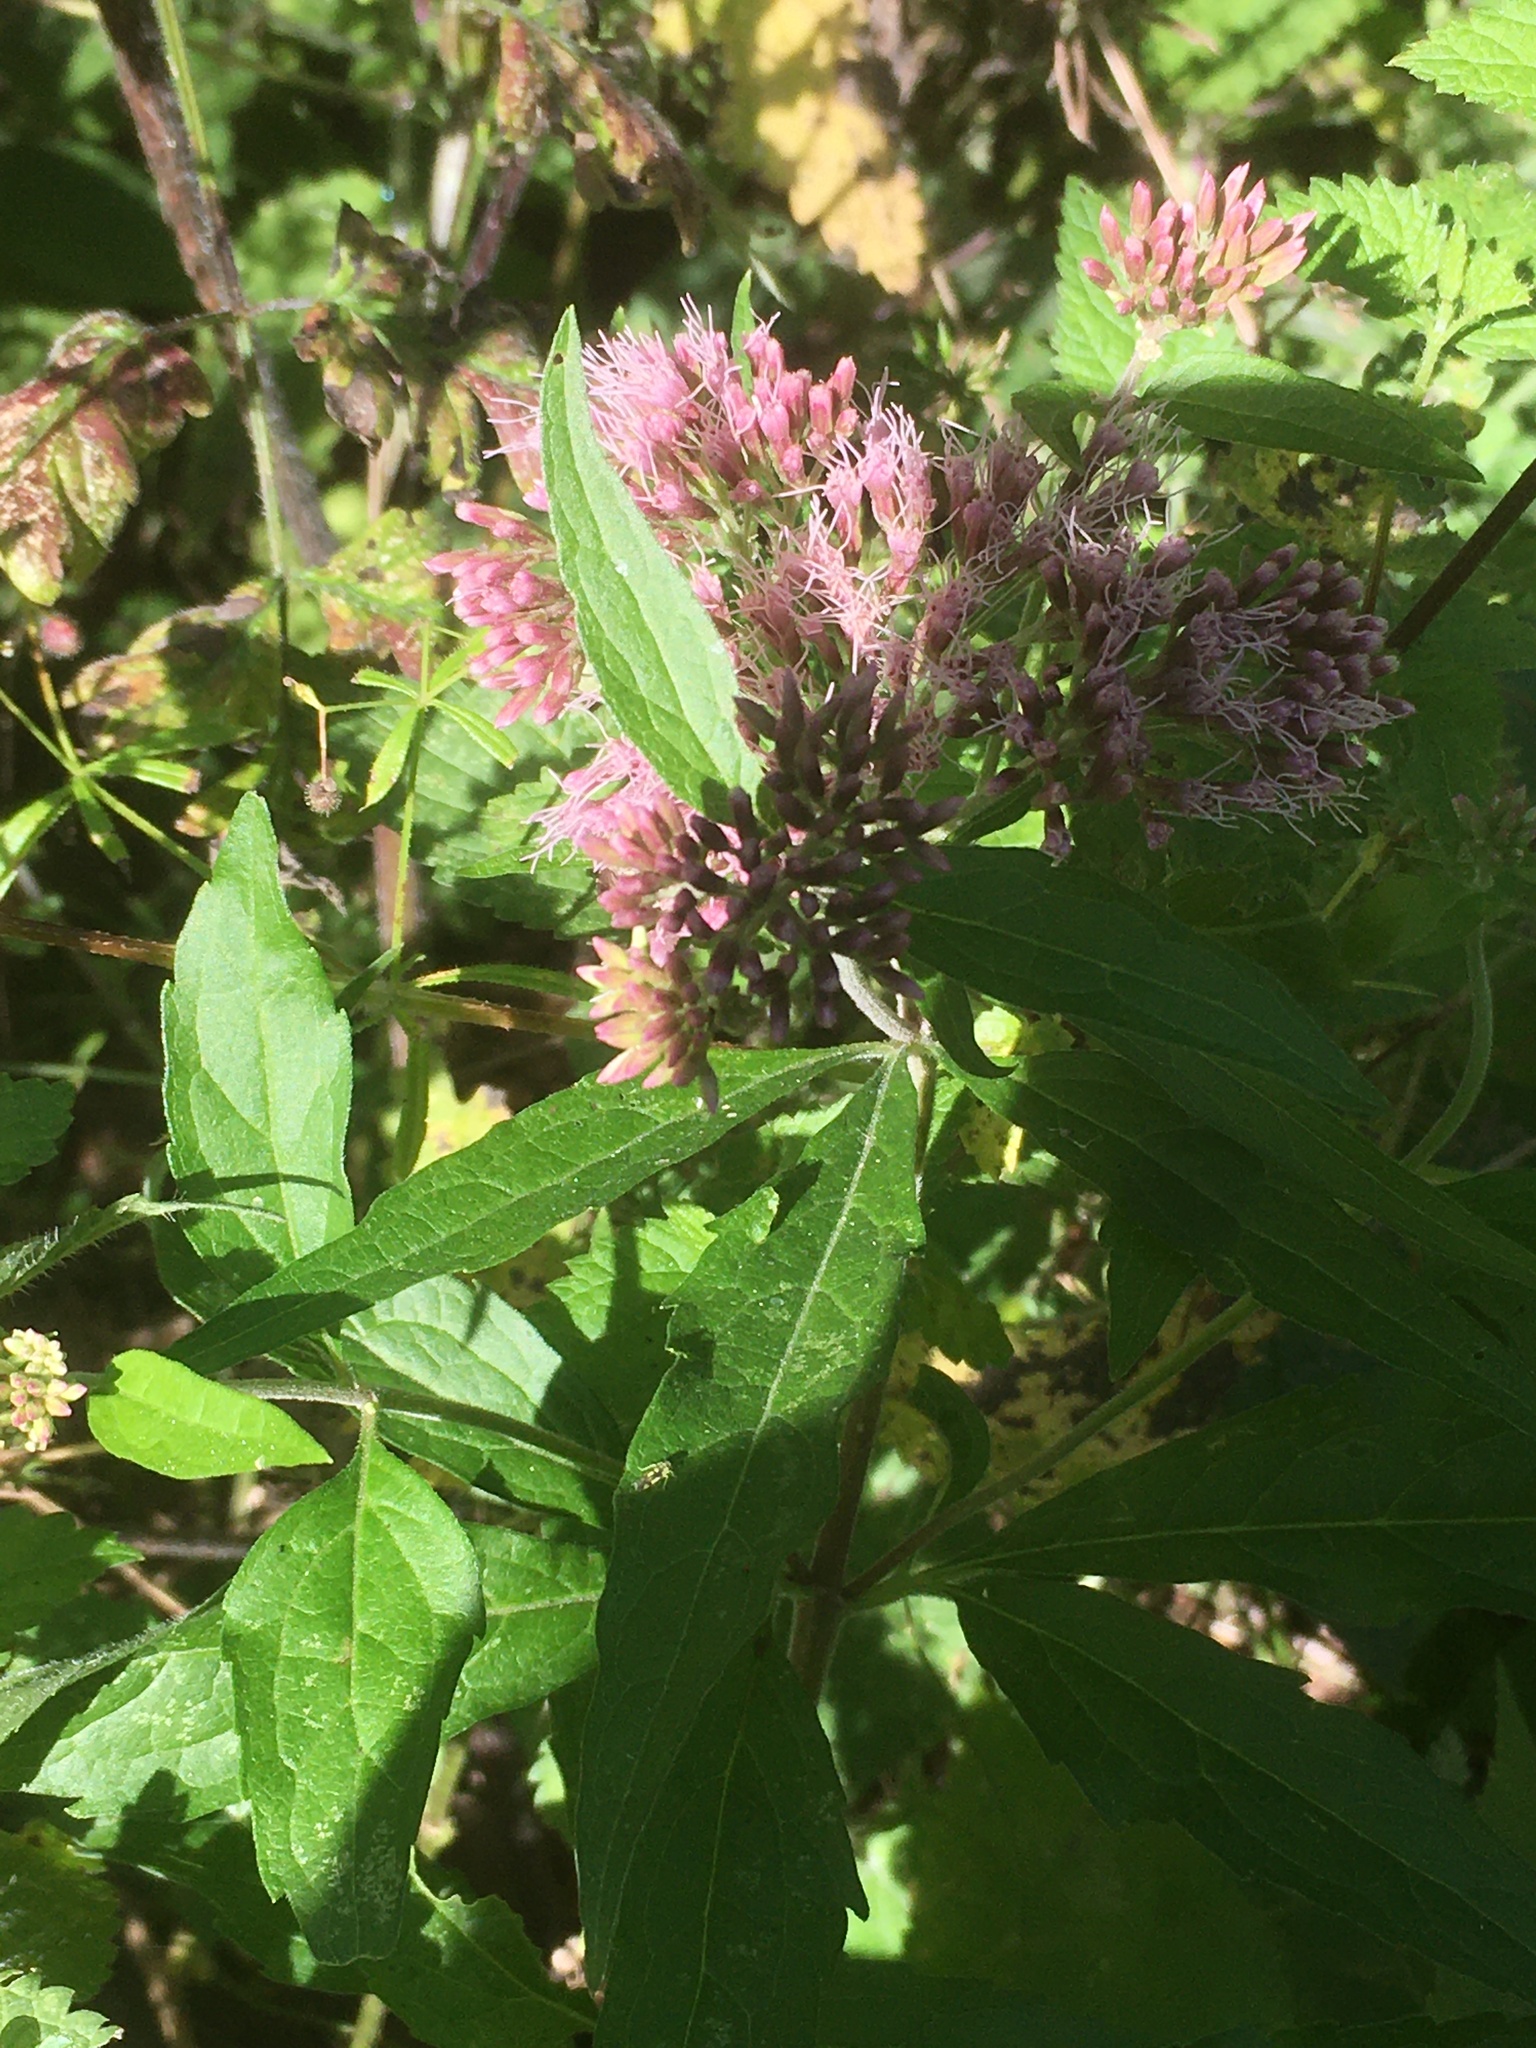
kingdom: Plantae
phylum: Tracheophyta
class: Magnoliopsida
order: Asterales
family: Asteraceae
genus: Eupatorium
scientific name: Eupatorium cannabinum
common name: Hemp-agrimony
